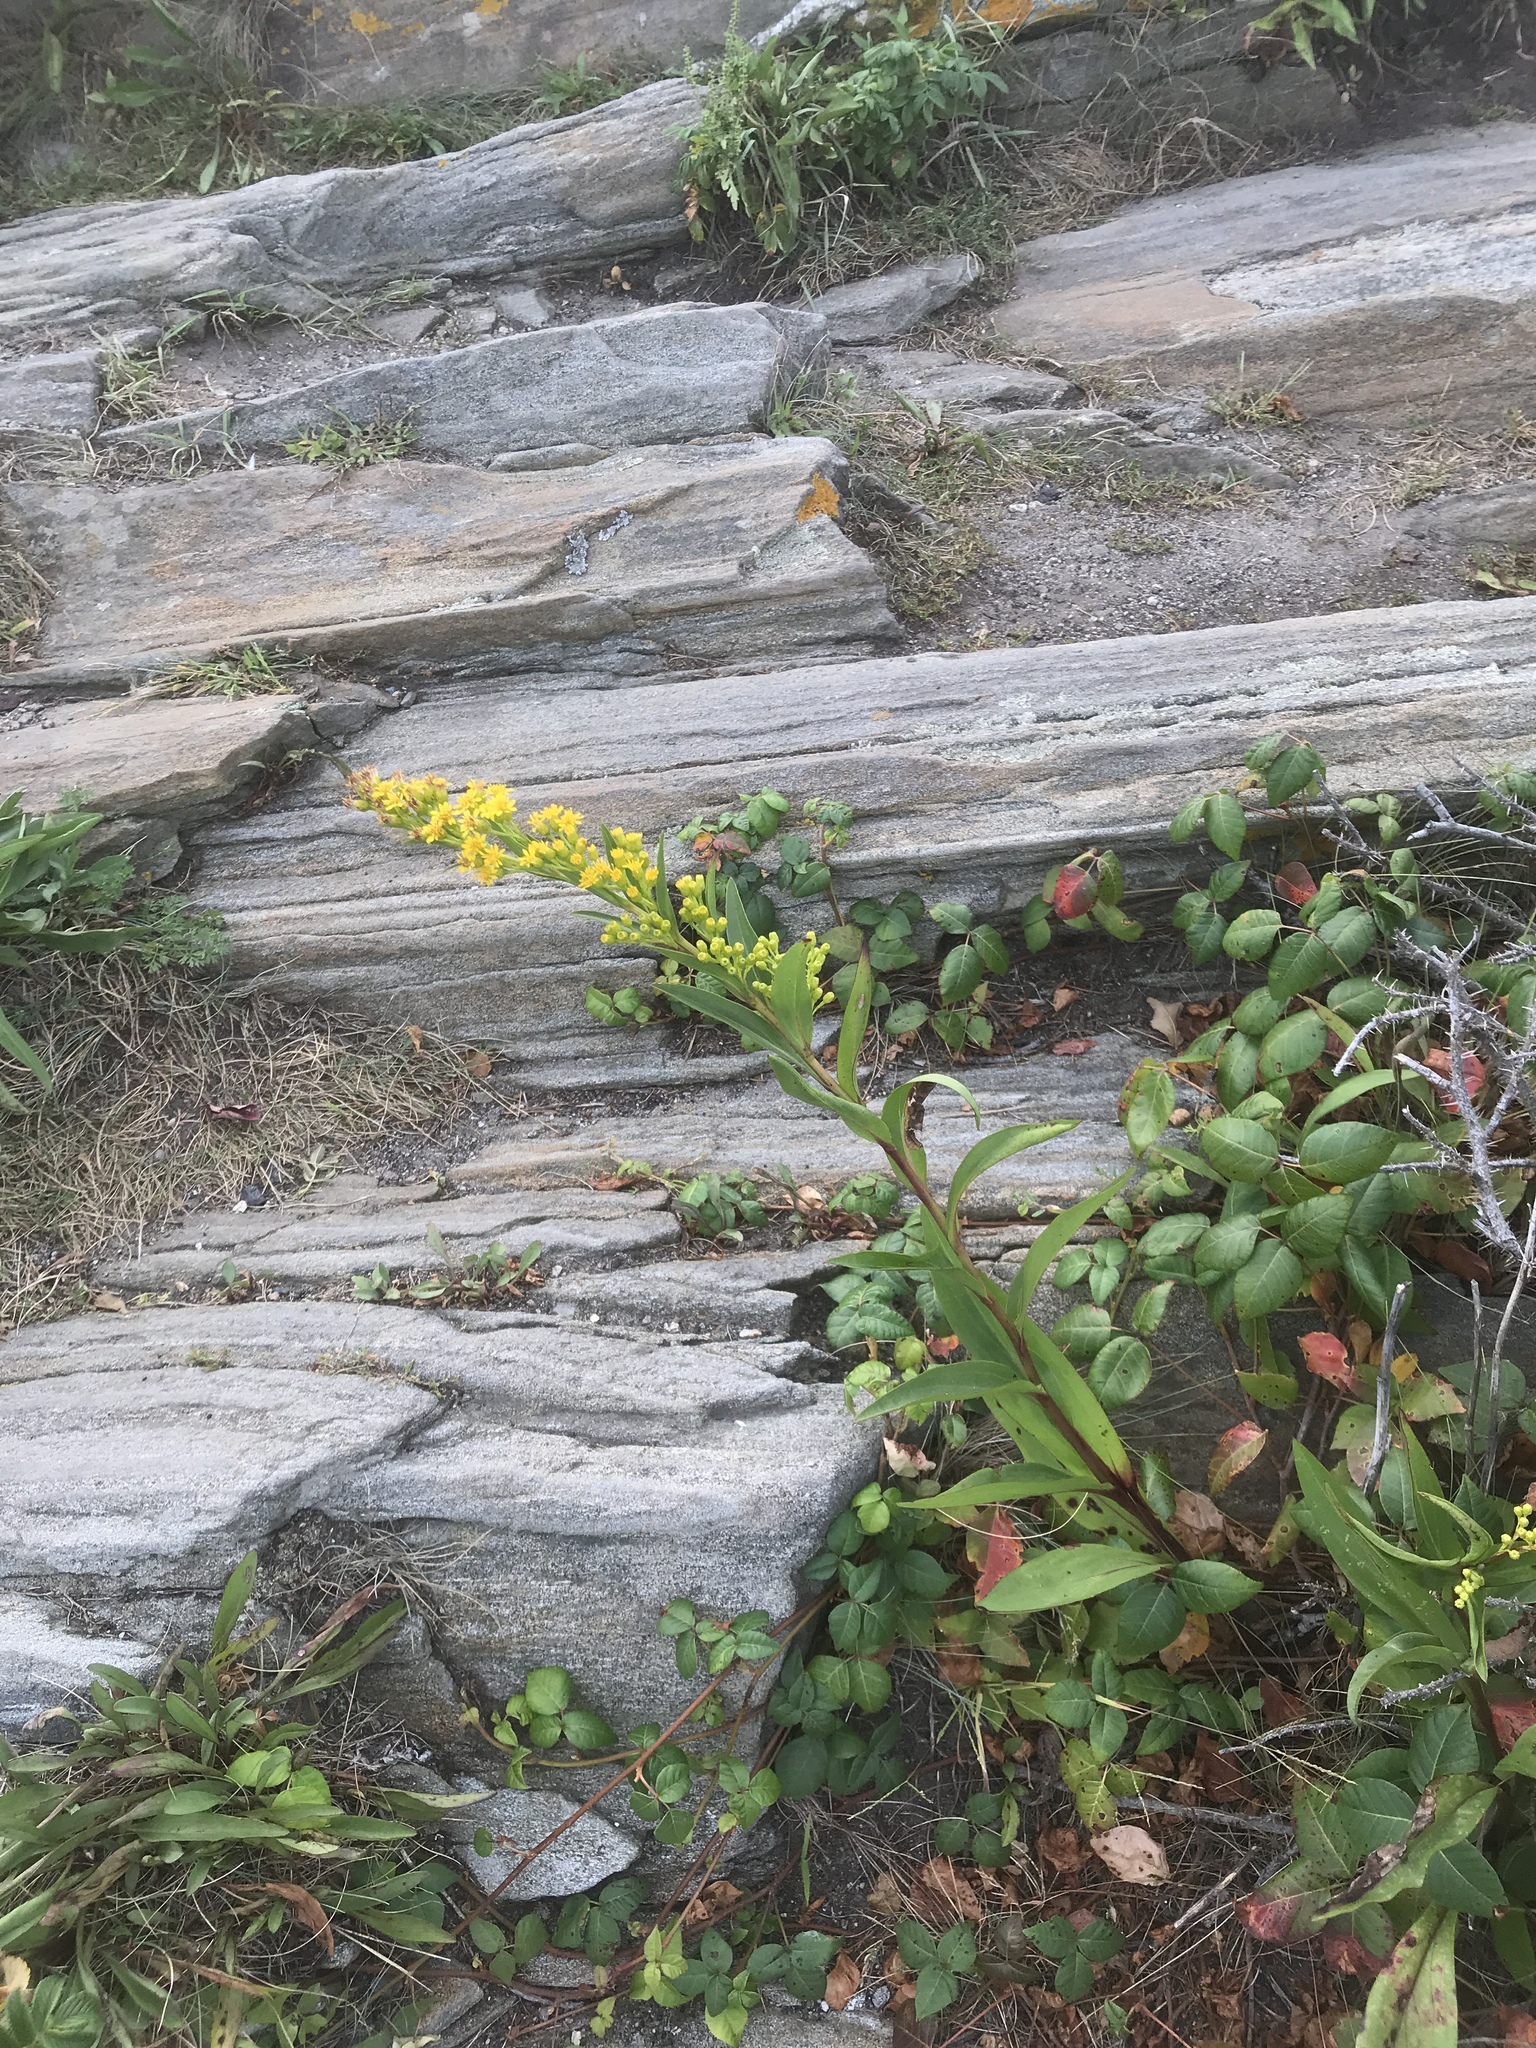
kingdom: Plantae
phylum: Tracheophyta
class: Magnoliopsida
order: Asterales
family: Asteraceae
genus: Solidago
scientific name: Solidago sempervirens
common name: Salt-marsh goldenrod
